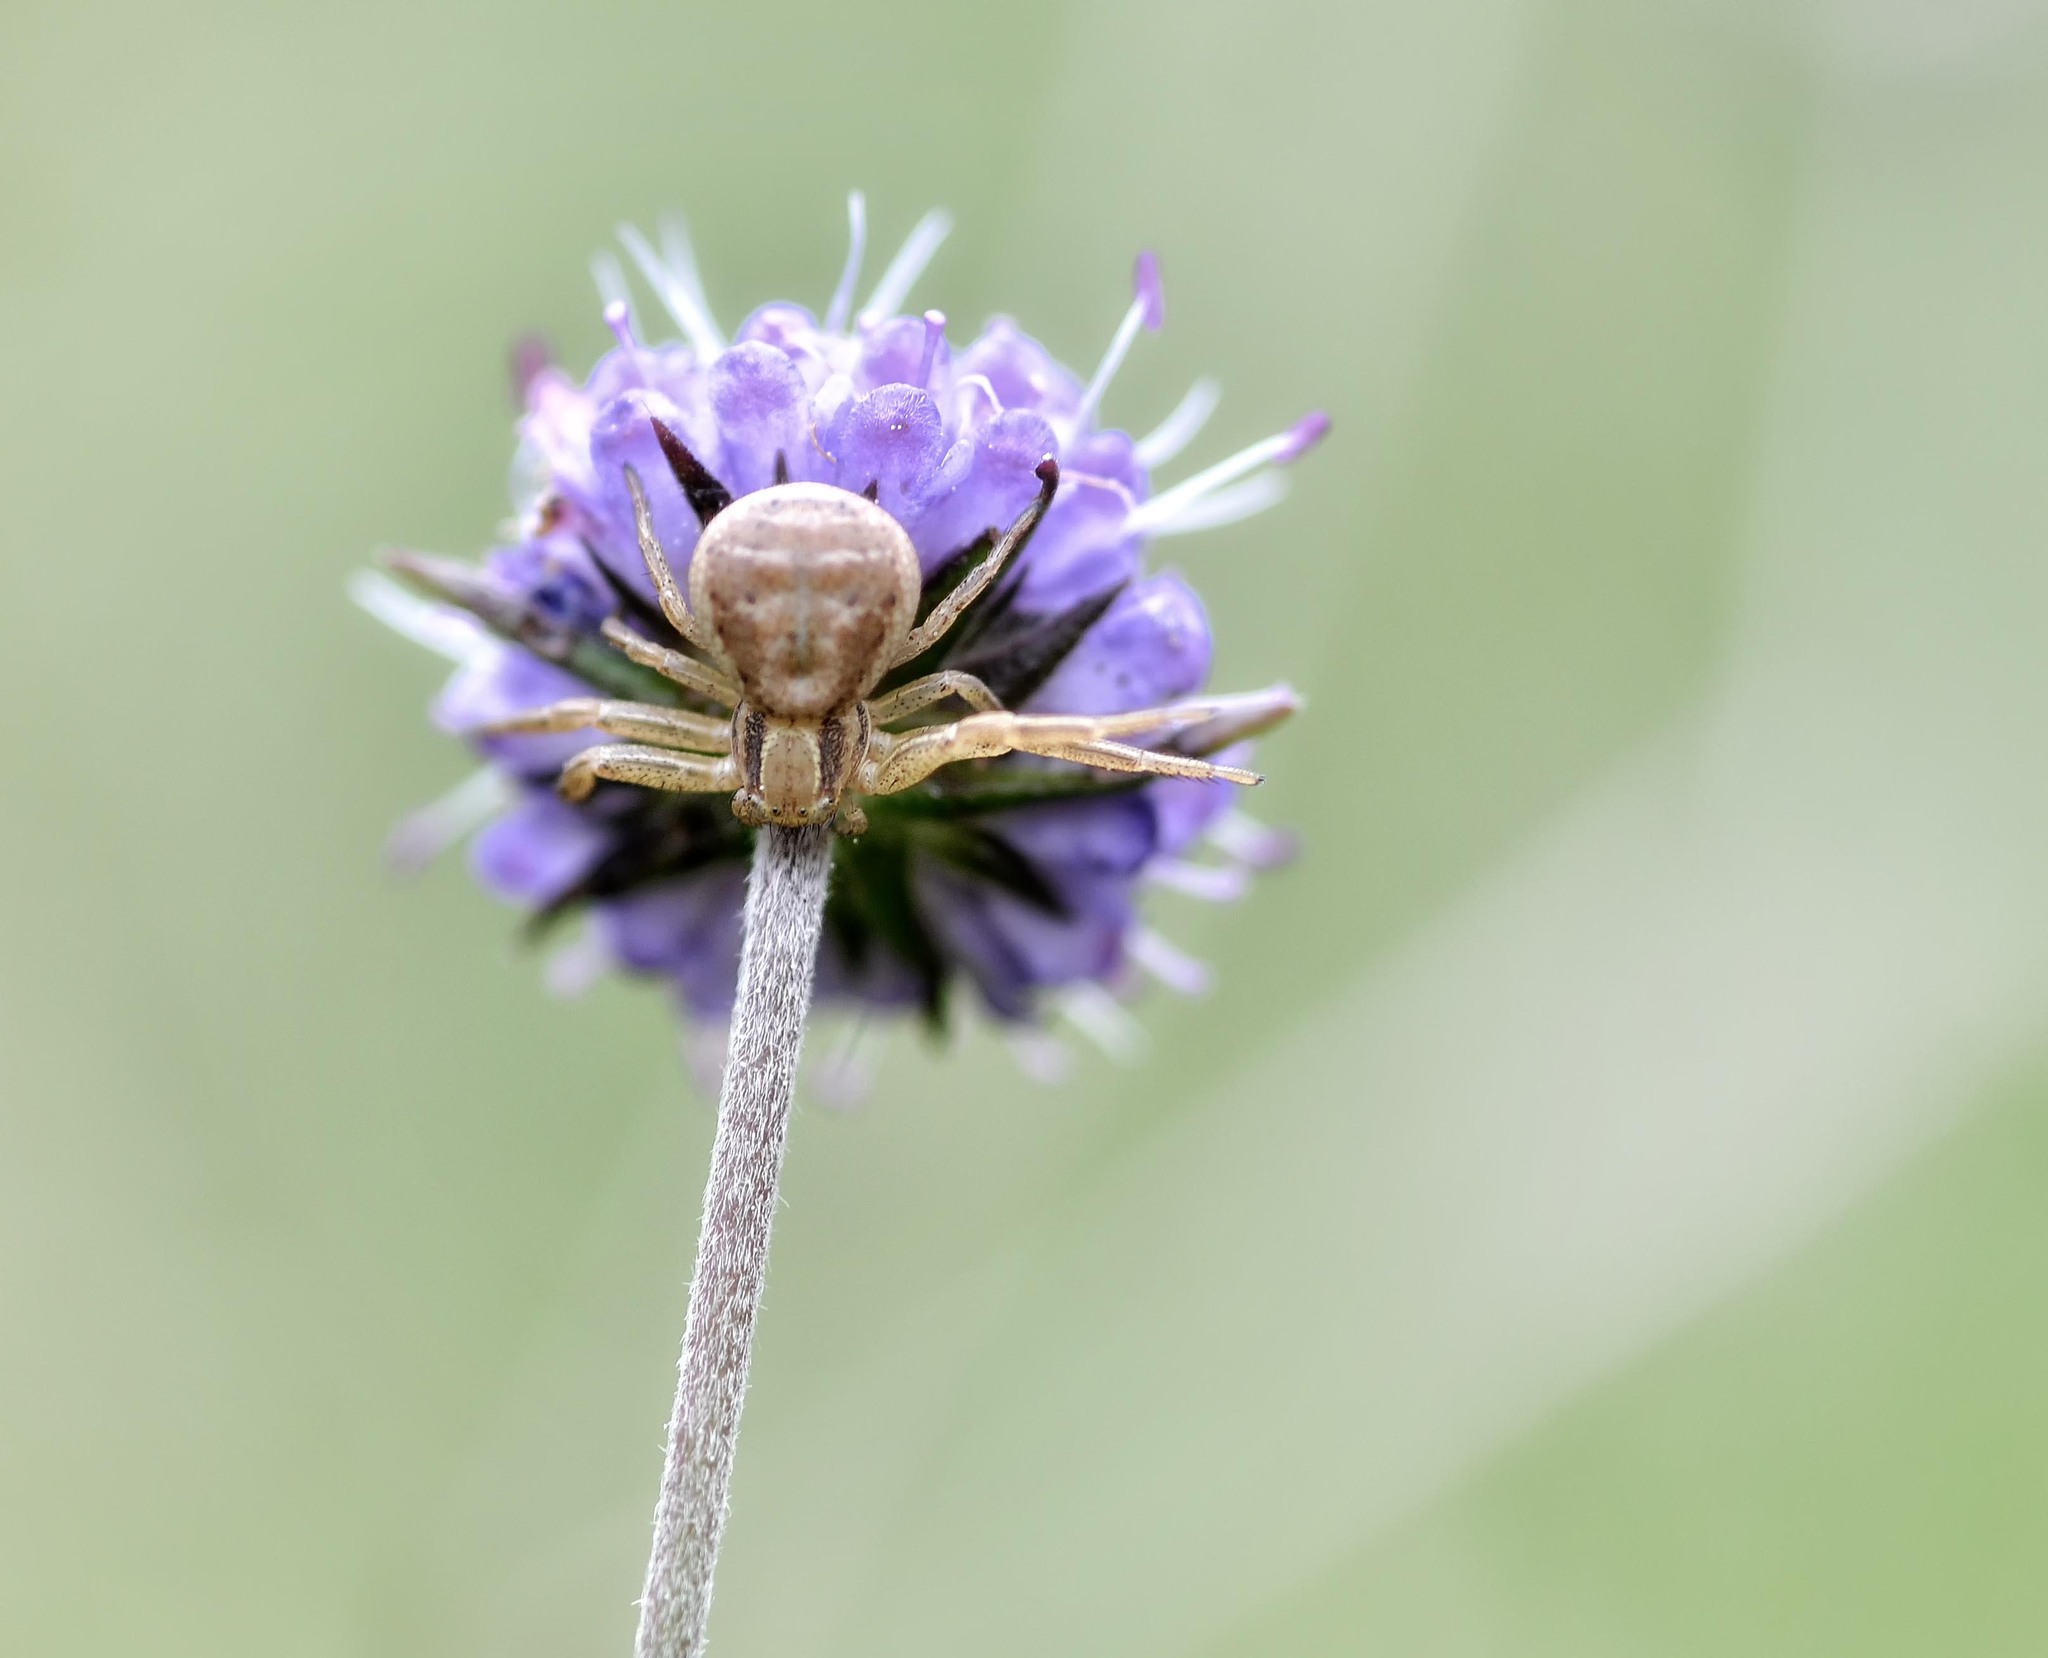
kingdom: Animalia
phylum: Arthropoda
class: Arachnida
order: Araneae
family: Thomisidae
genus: Xysticus
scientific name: Xysticus
